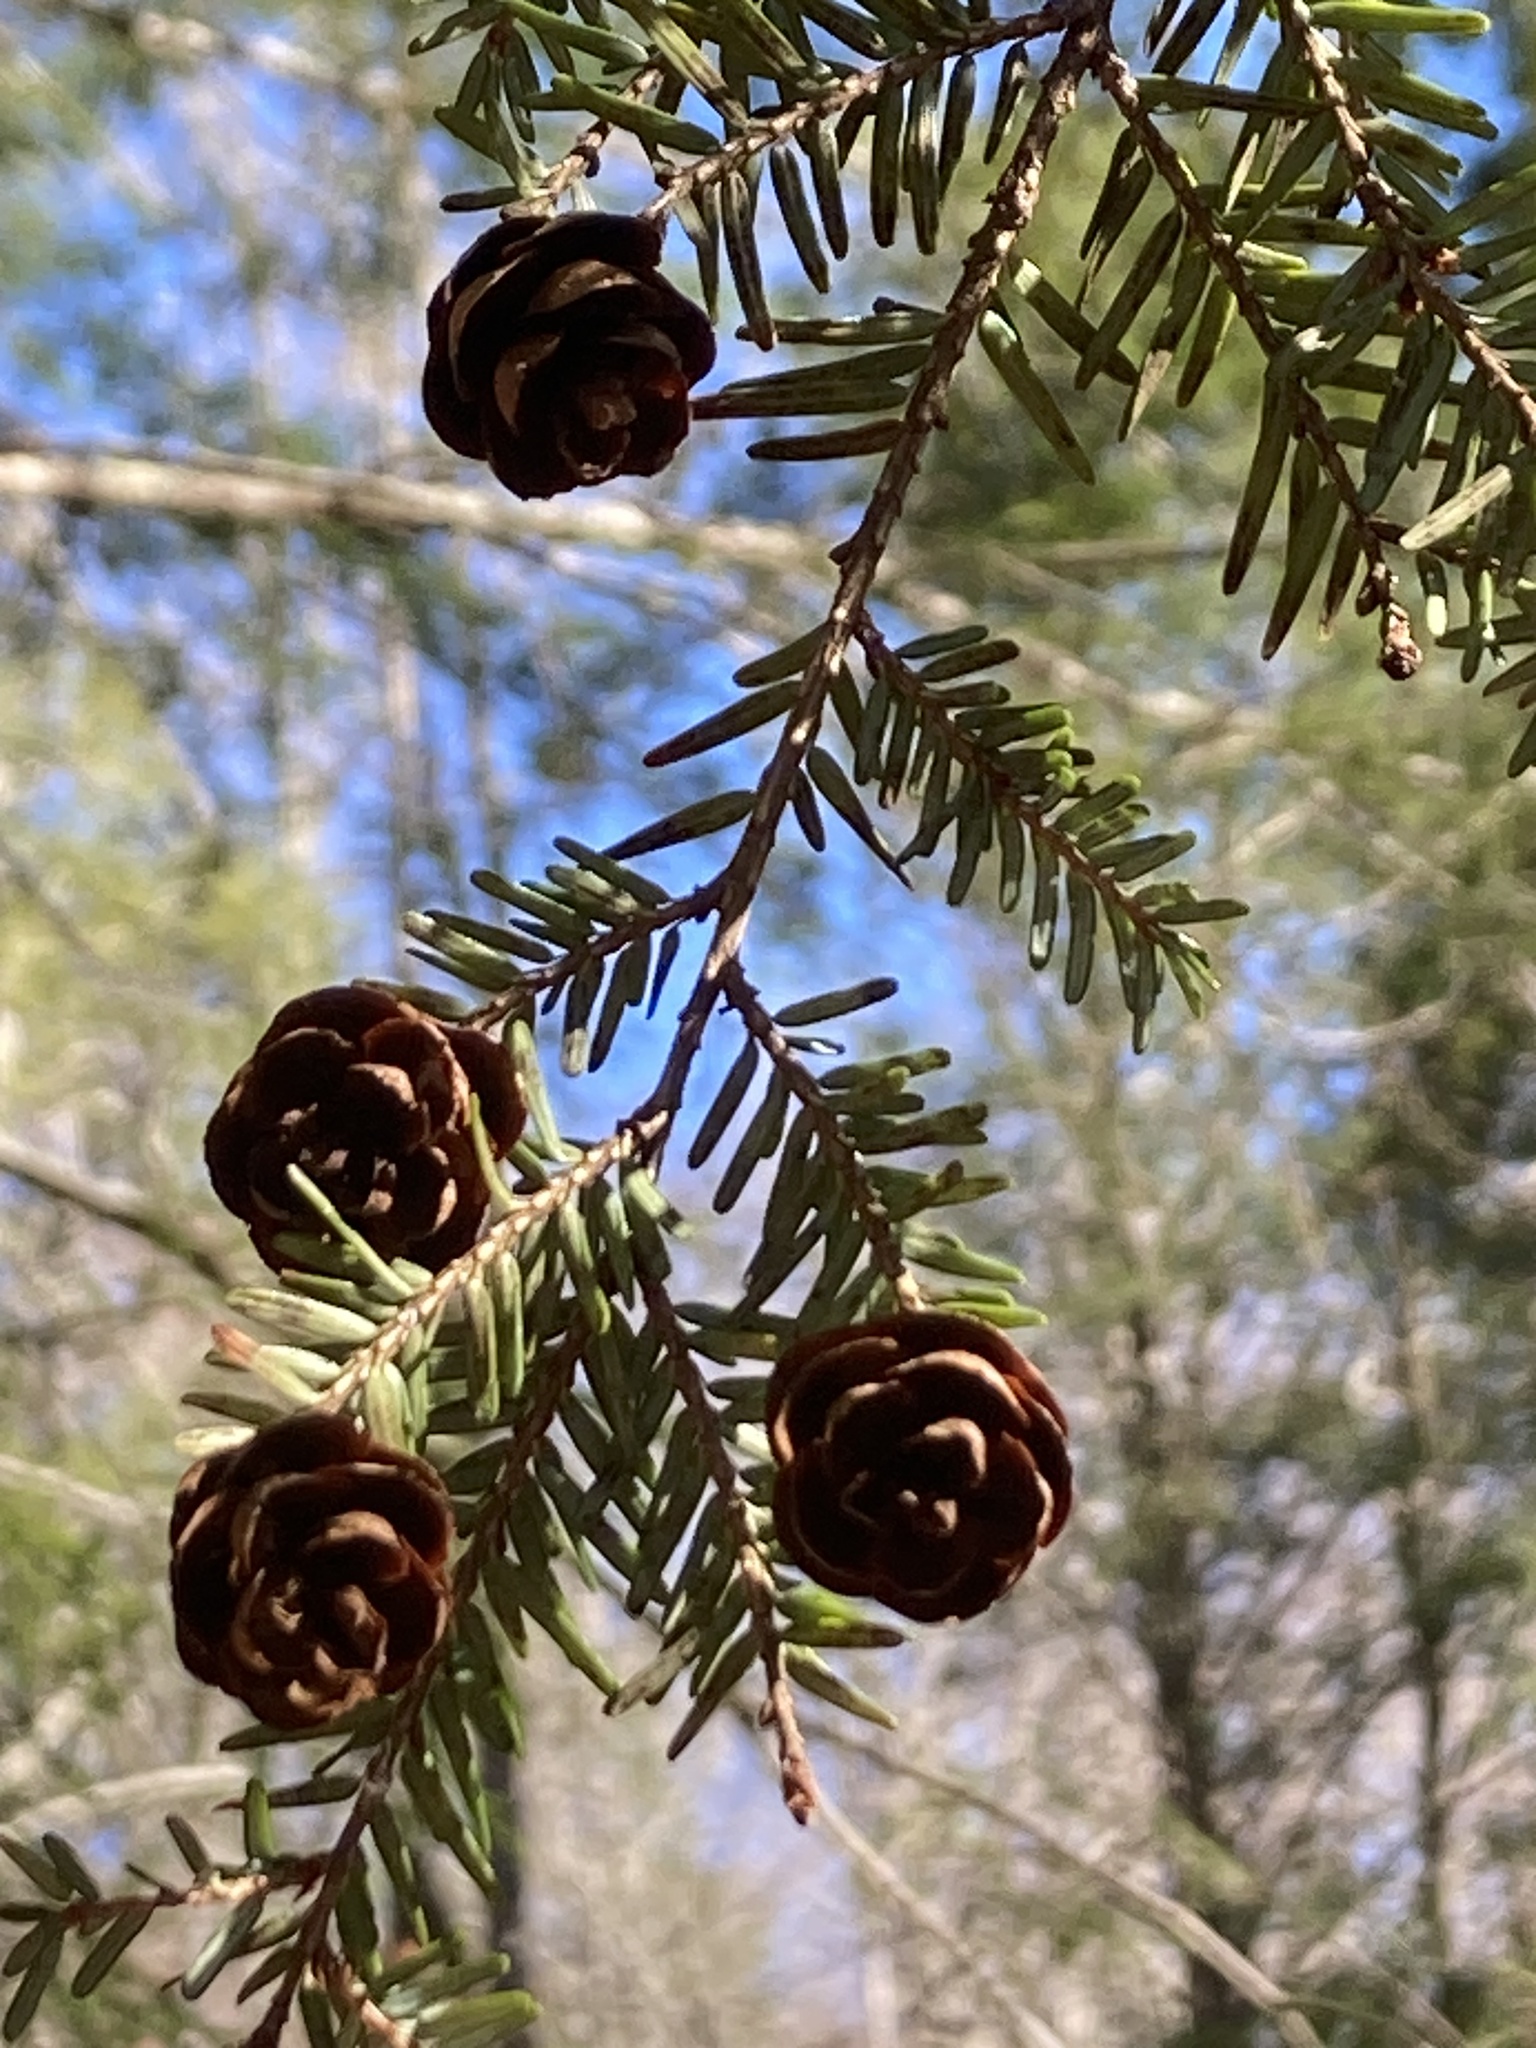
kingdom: Plantae
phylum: Tracheophyta
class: Pinopsida
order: Pinales
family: Pinaceae
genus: Tsuga
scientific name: Tsuga canadensis
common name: Eastern hemlock
